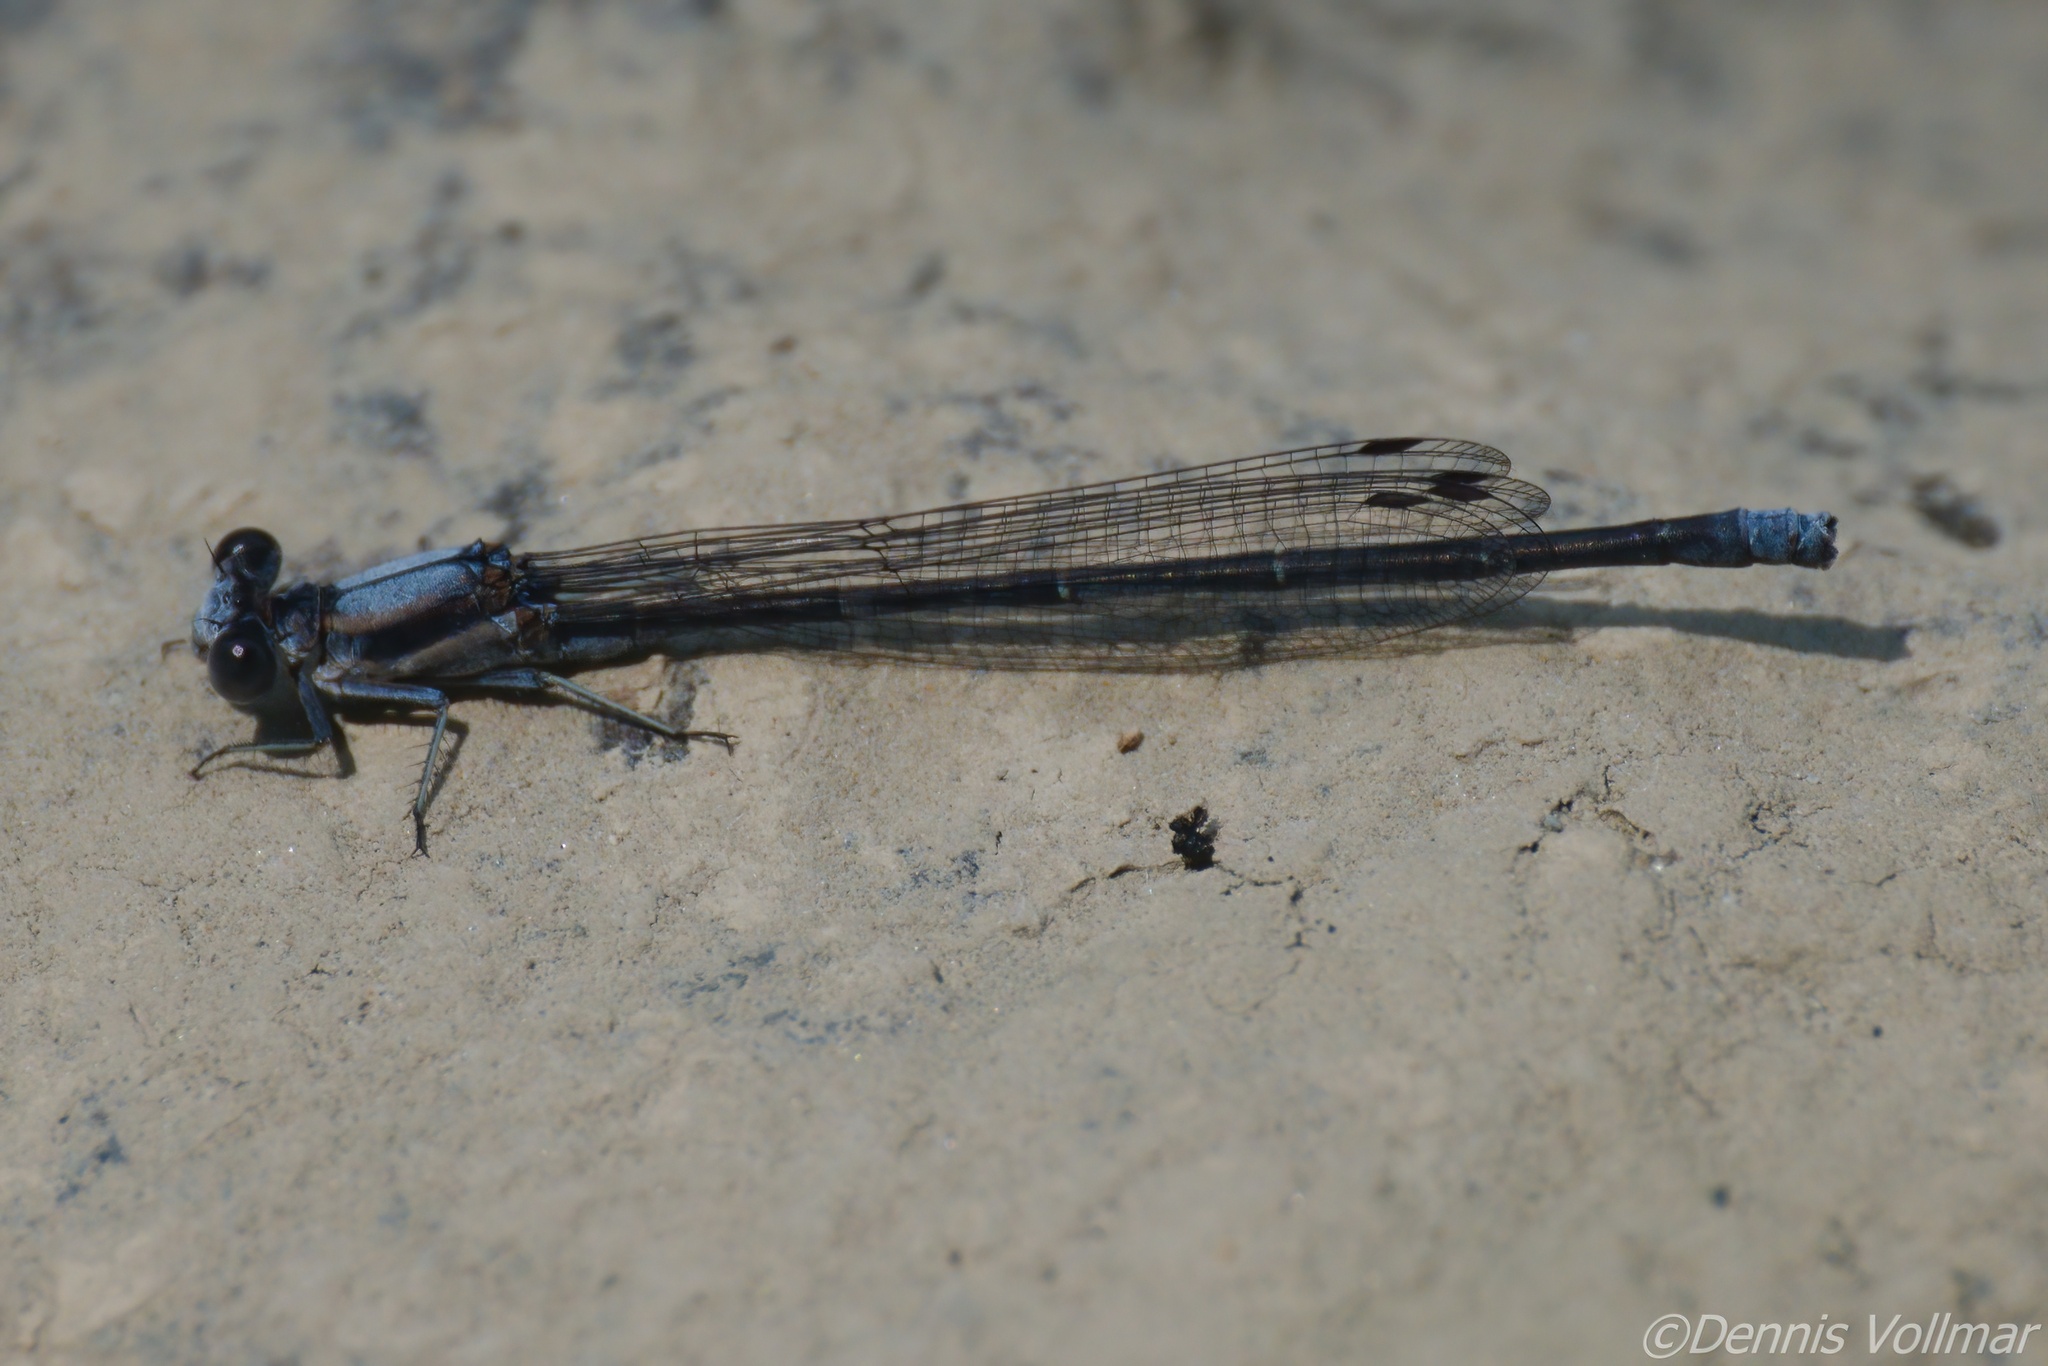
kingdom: Animalia
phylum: Arthropoda
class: Insecta
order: Odonata
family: Coenagrionidae
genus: Argia
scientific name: Argia moesta
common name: Powdered dancer
